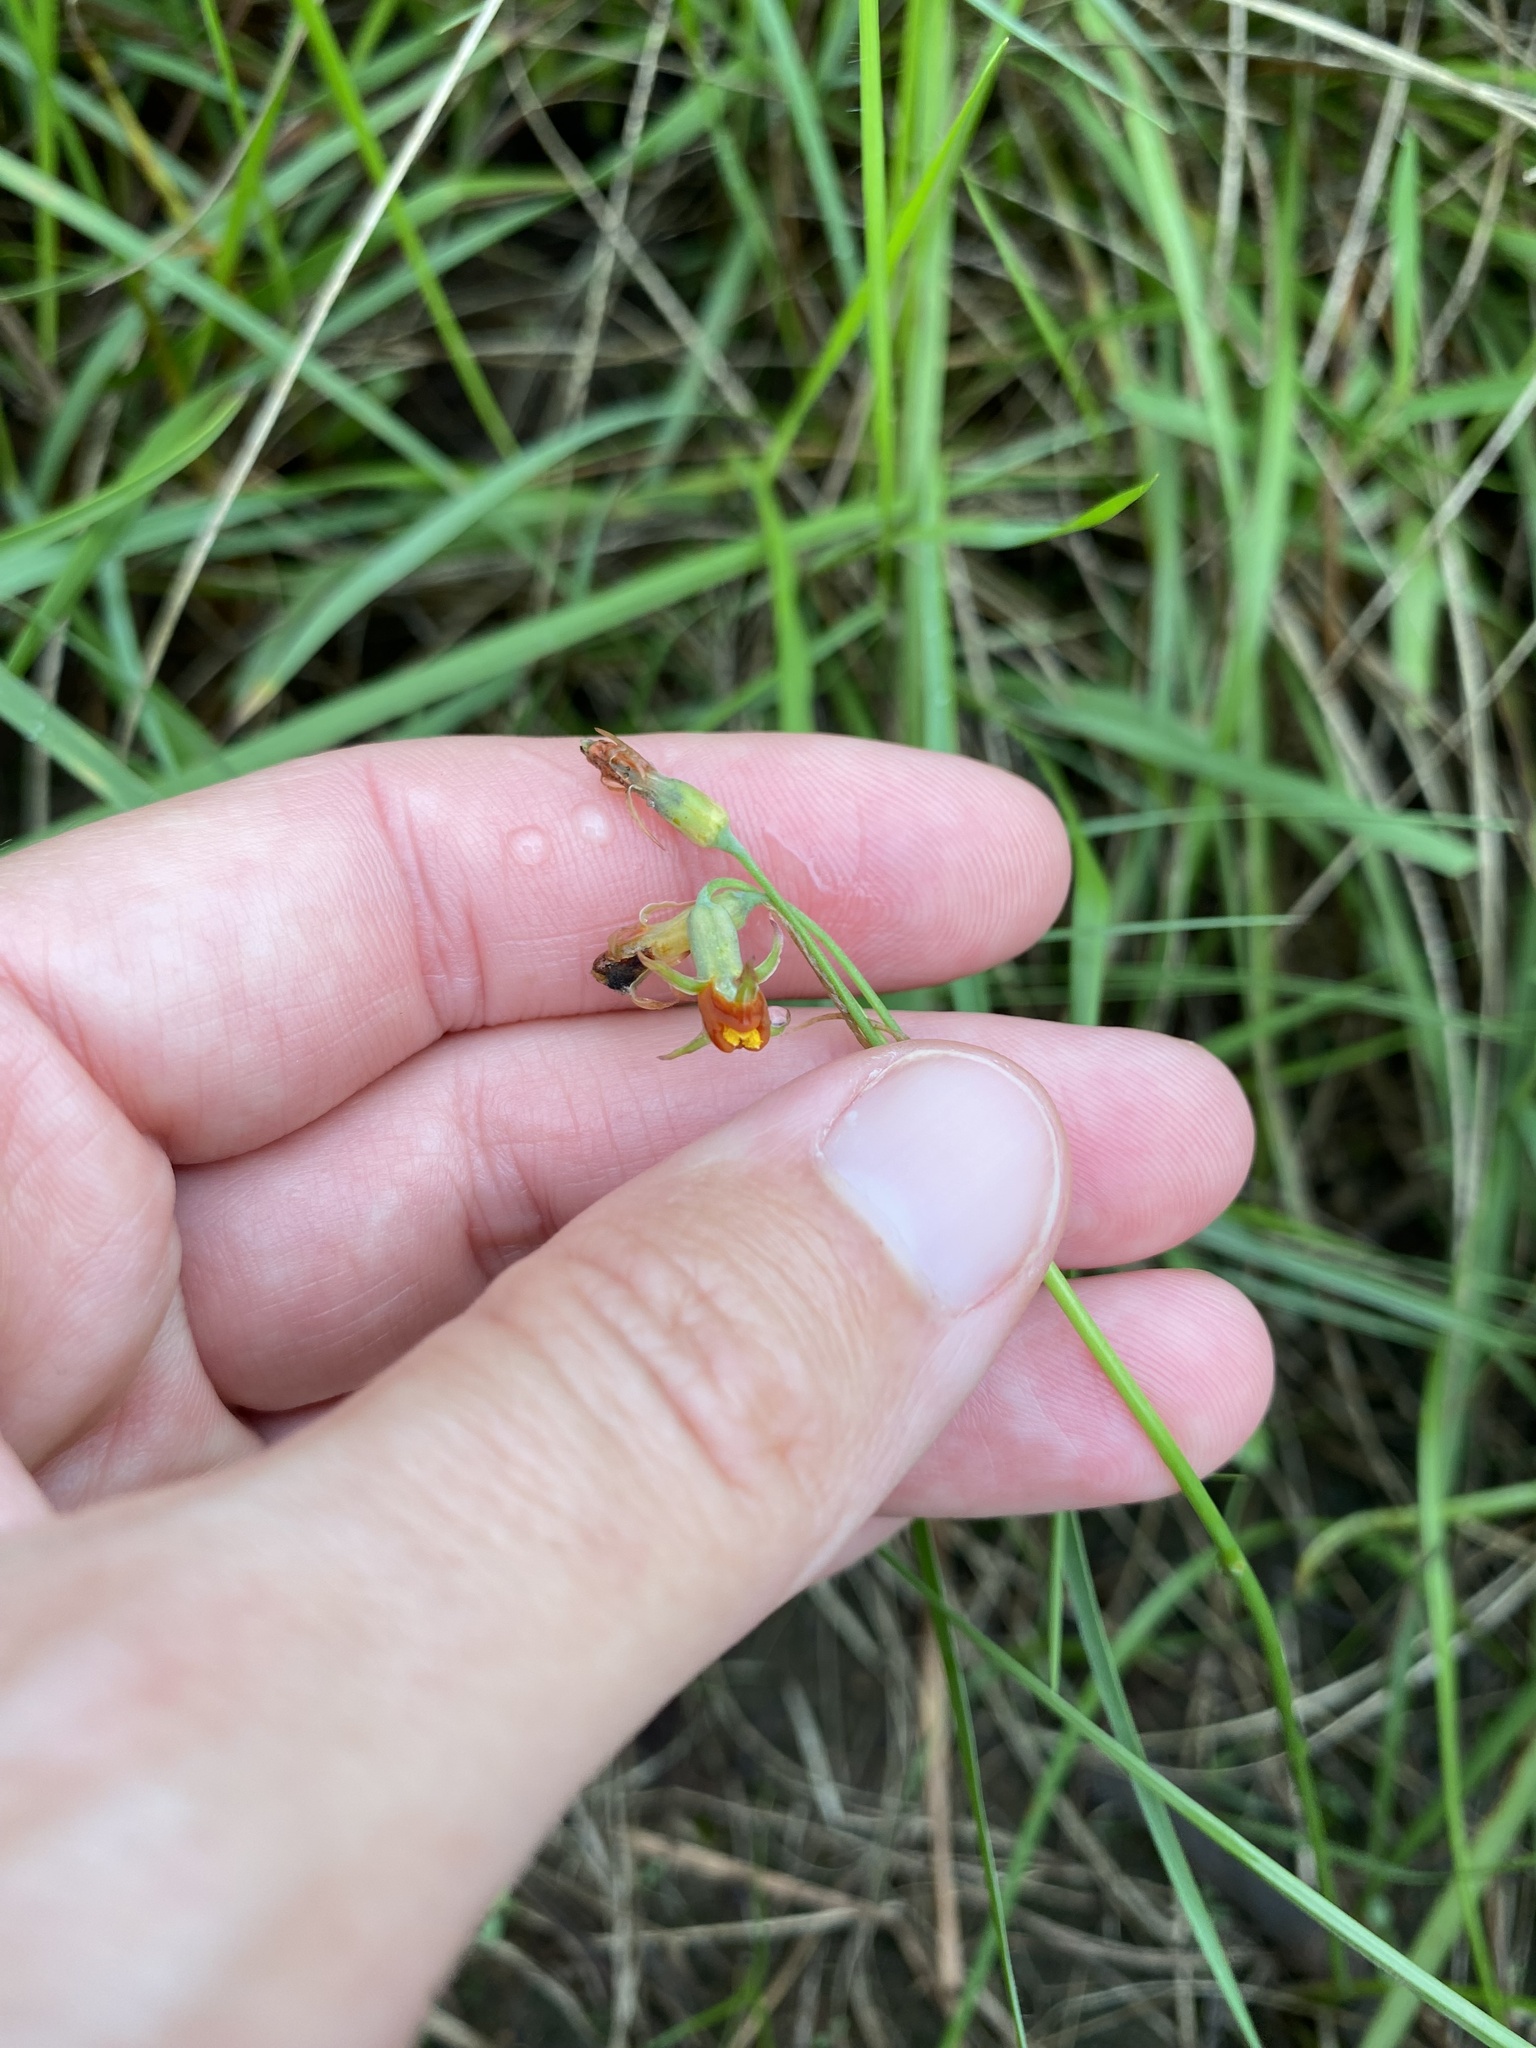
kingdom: Plantae
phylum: Tracheophyta
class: Liliopsida
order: Asparagales
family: Amaryllidaceae
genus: Tulbaghia
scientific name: Tulbaghia acutiloba
